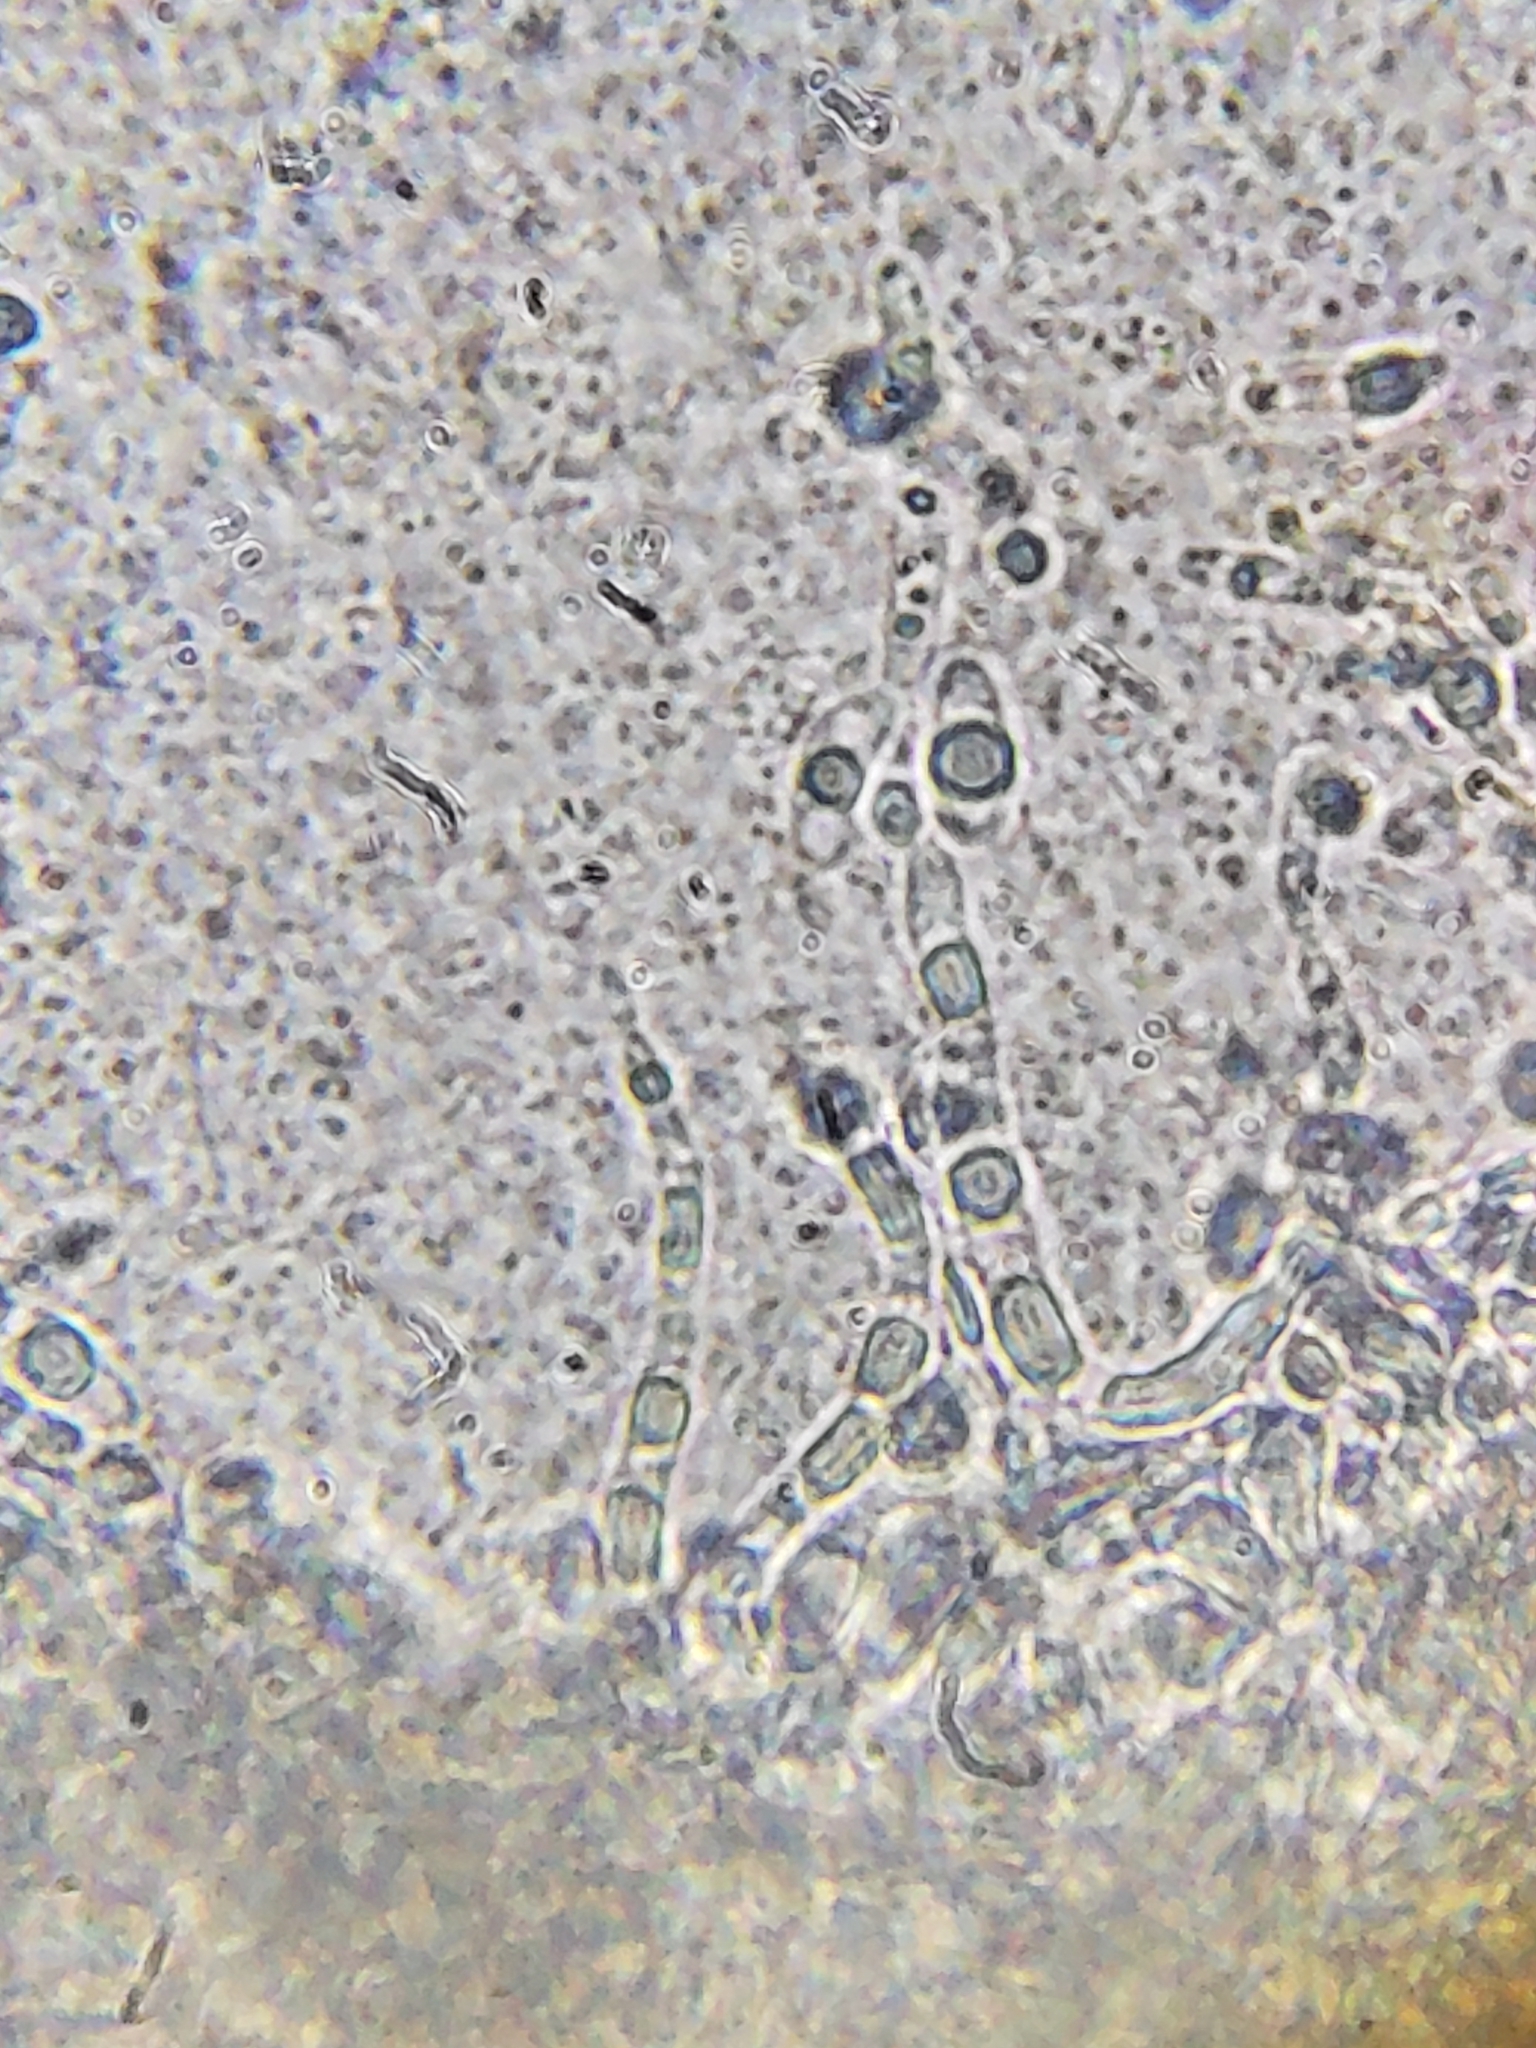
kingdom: Fungi
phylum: Basidiomycota
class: Agaricomycetes
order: Polyporales
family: Meripilaceae
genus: Meripilus
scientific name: Meripilus sumstinei
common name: Black-staining polypore
